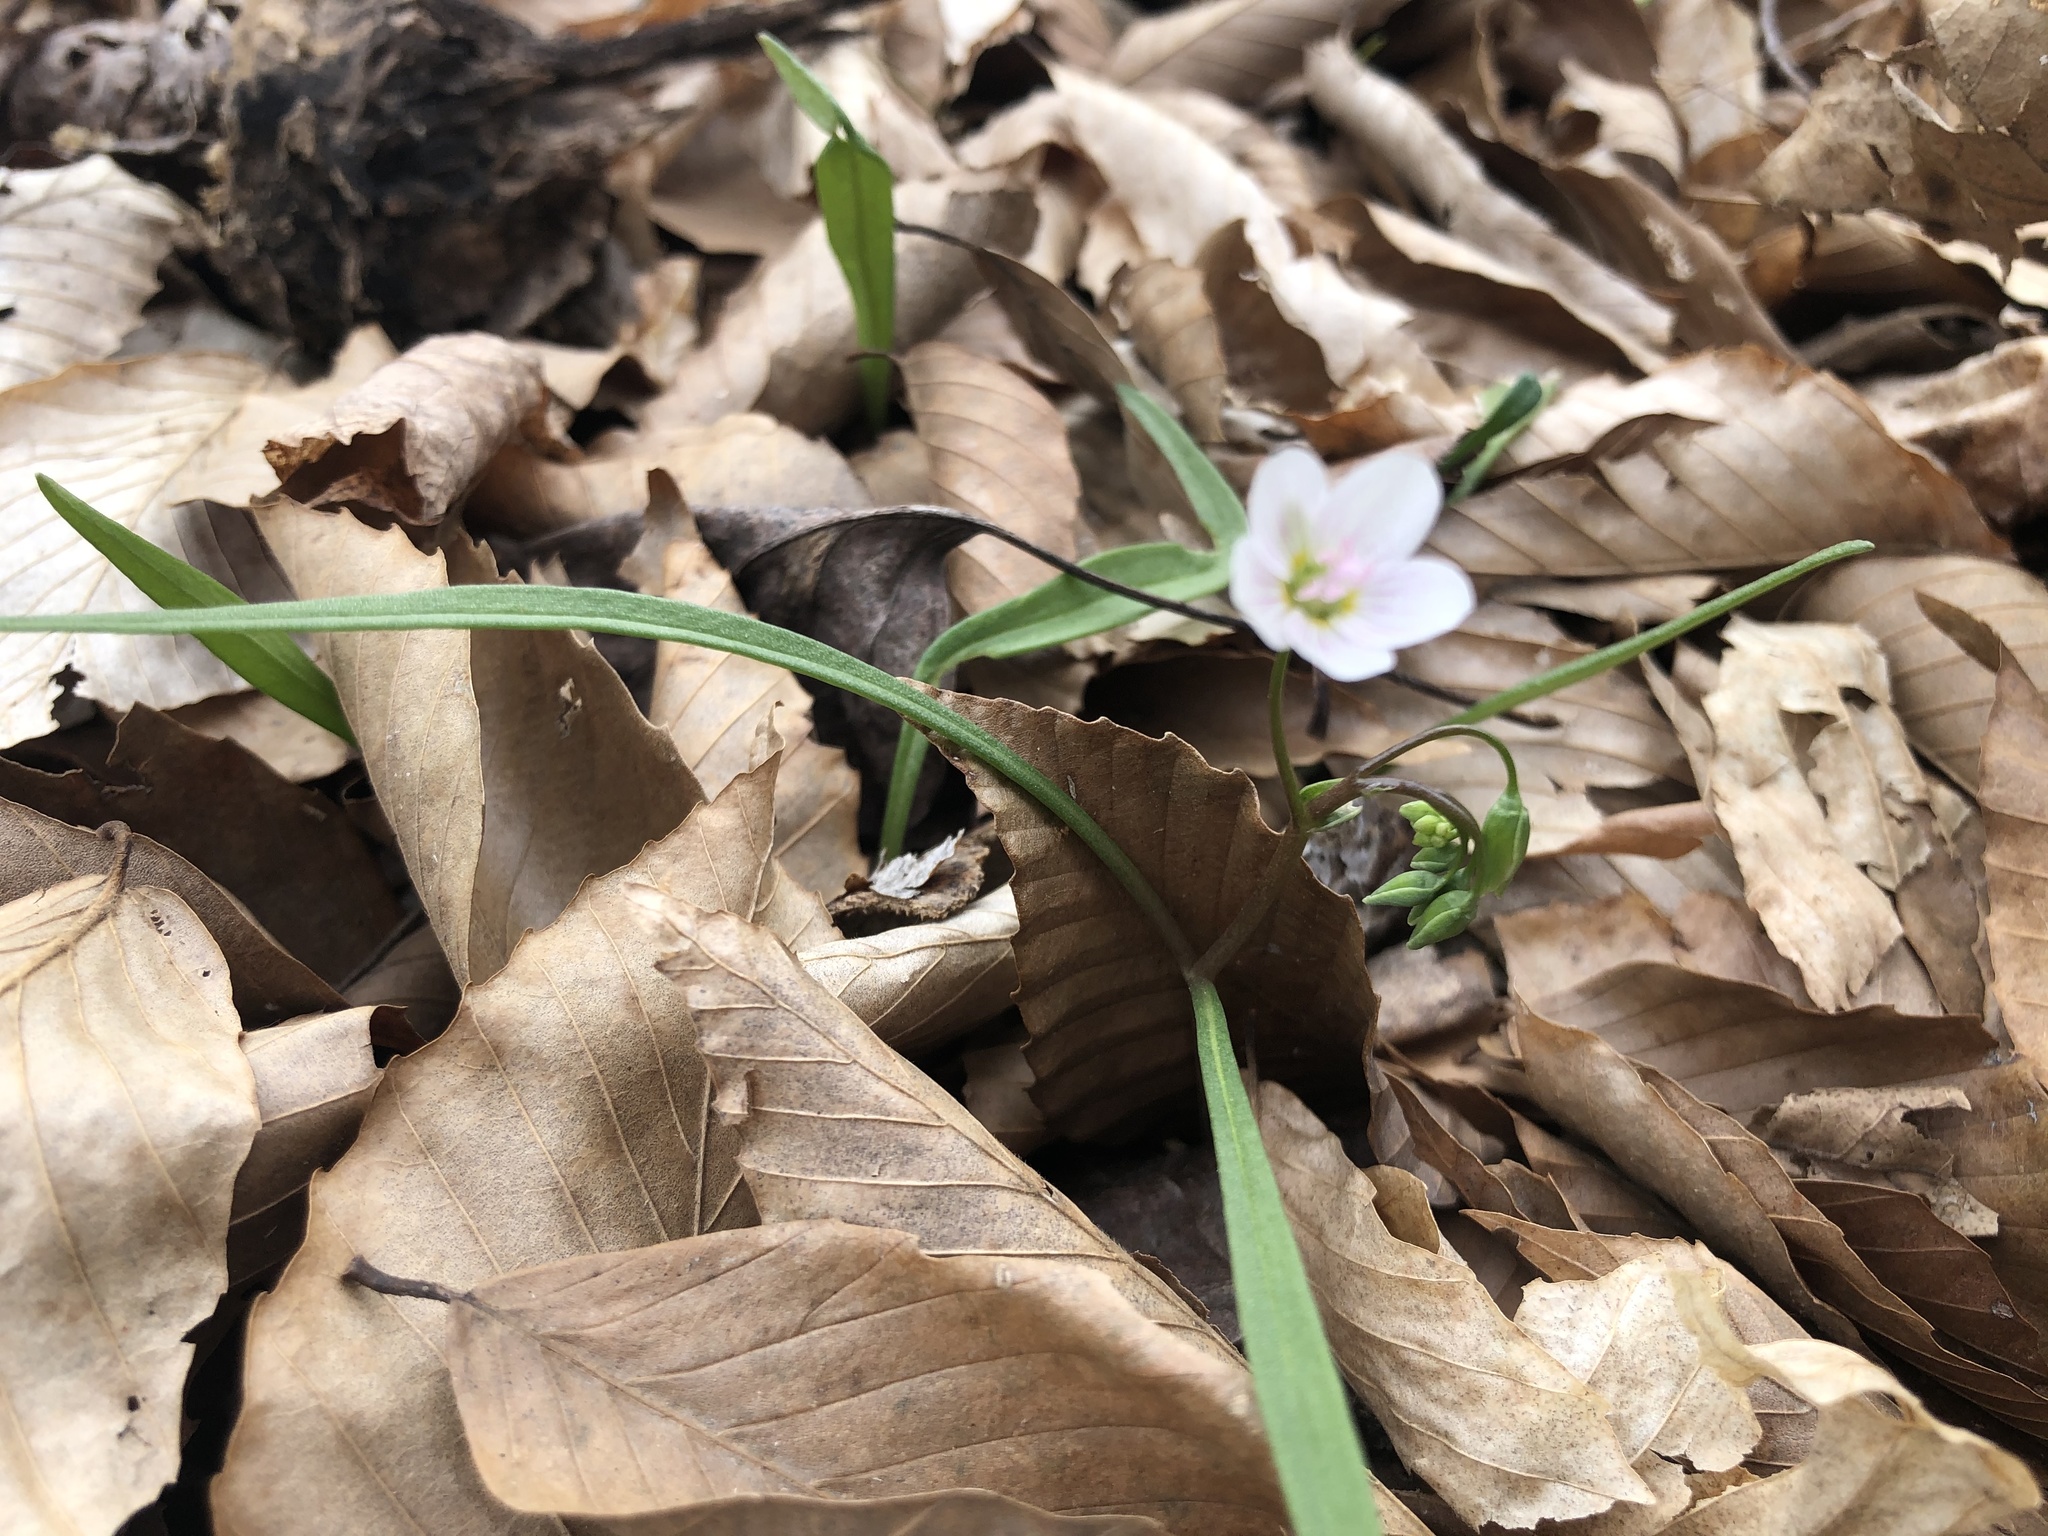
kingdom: Plantae
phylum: Tracheophyta
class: Magnoliopsida
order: Caryophyllales
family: Montiaceae
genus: Claytonia
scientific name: Claytonia virginica
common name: Virginia springbeauty
